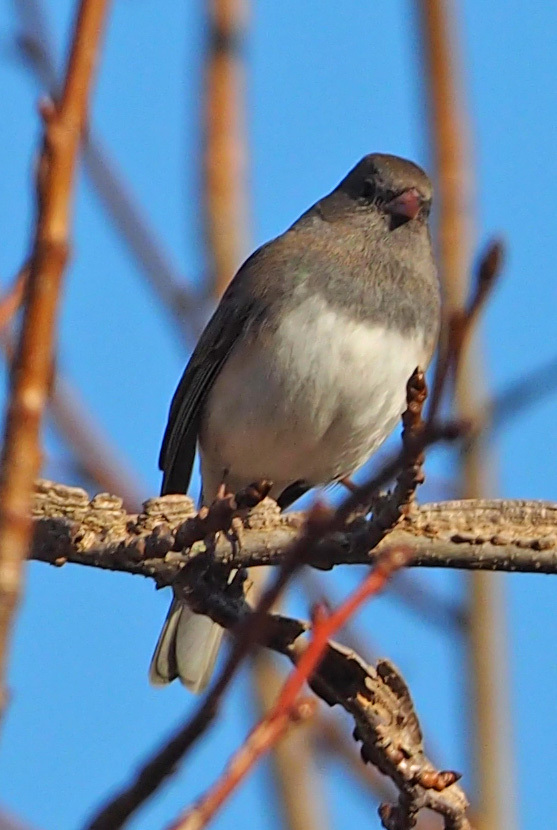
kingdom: Animalia
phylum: Chordata
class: Aves
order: Passeriformes
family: Passerellidae
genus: Junco
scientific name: Junco hyemalis
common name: Dark-eyed junco
